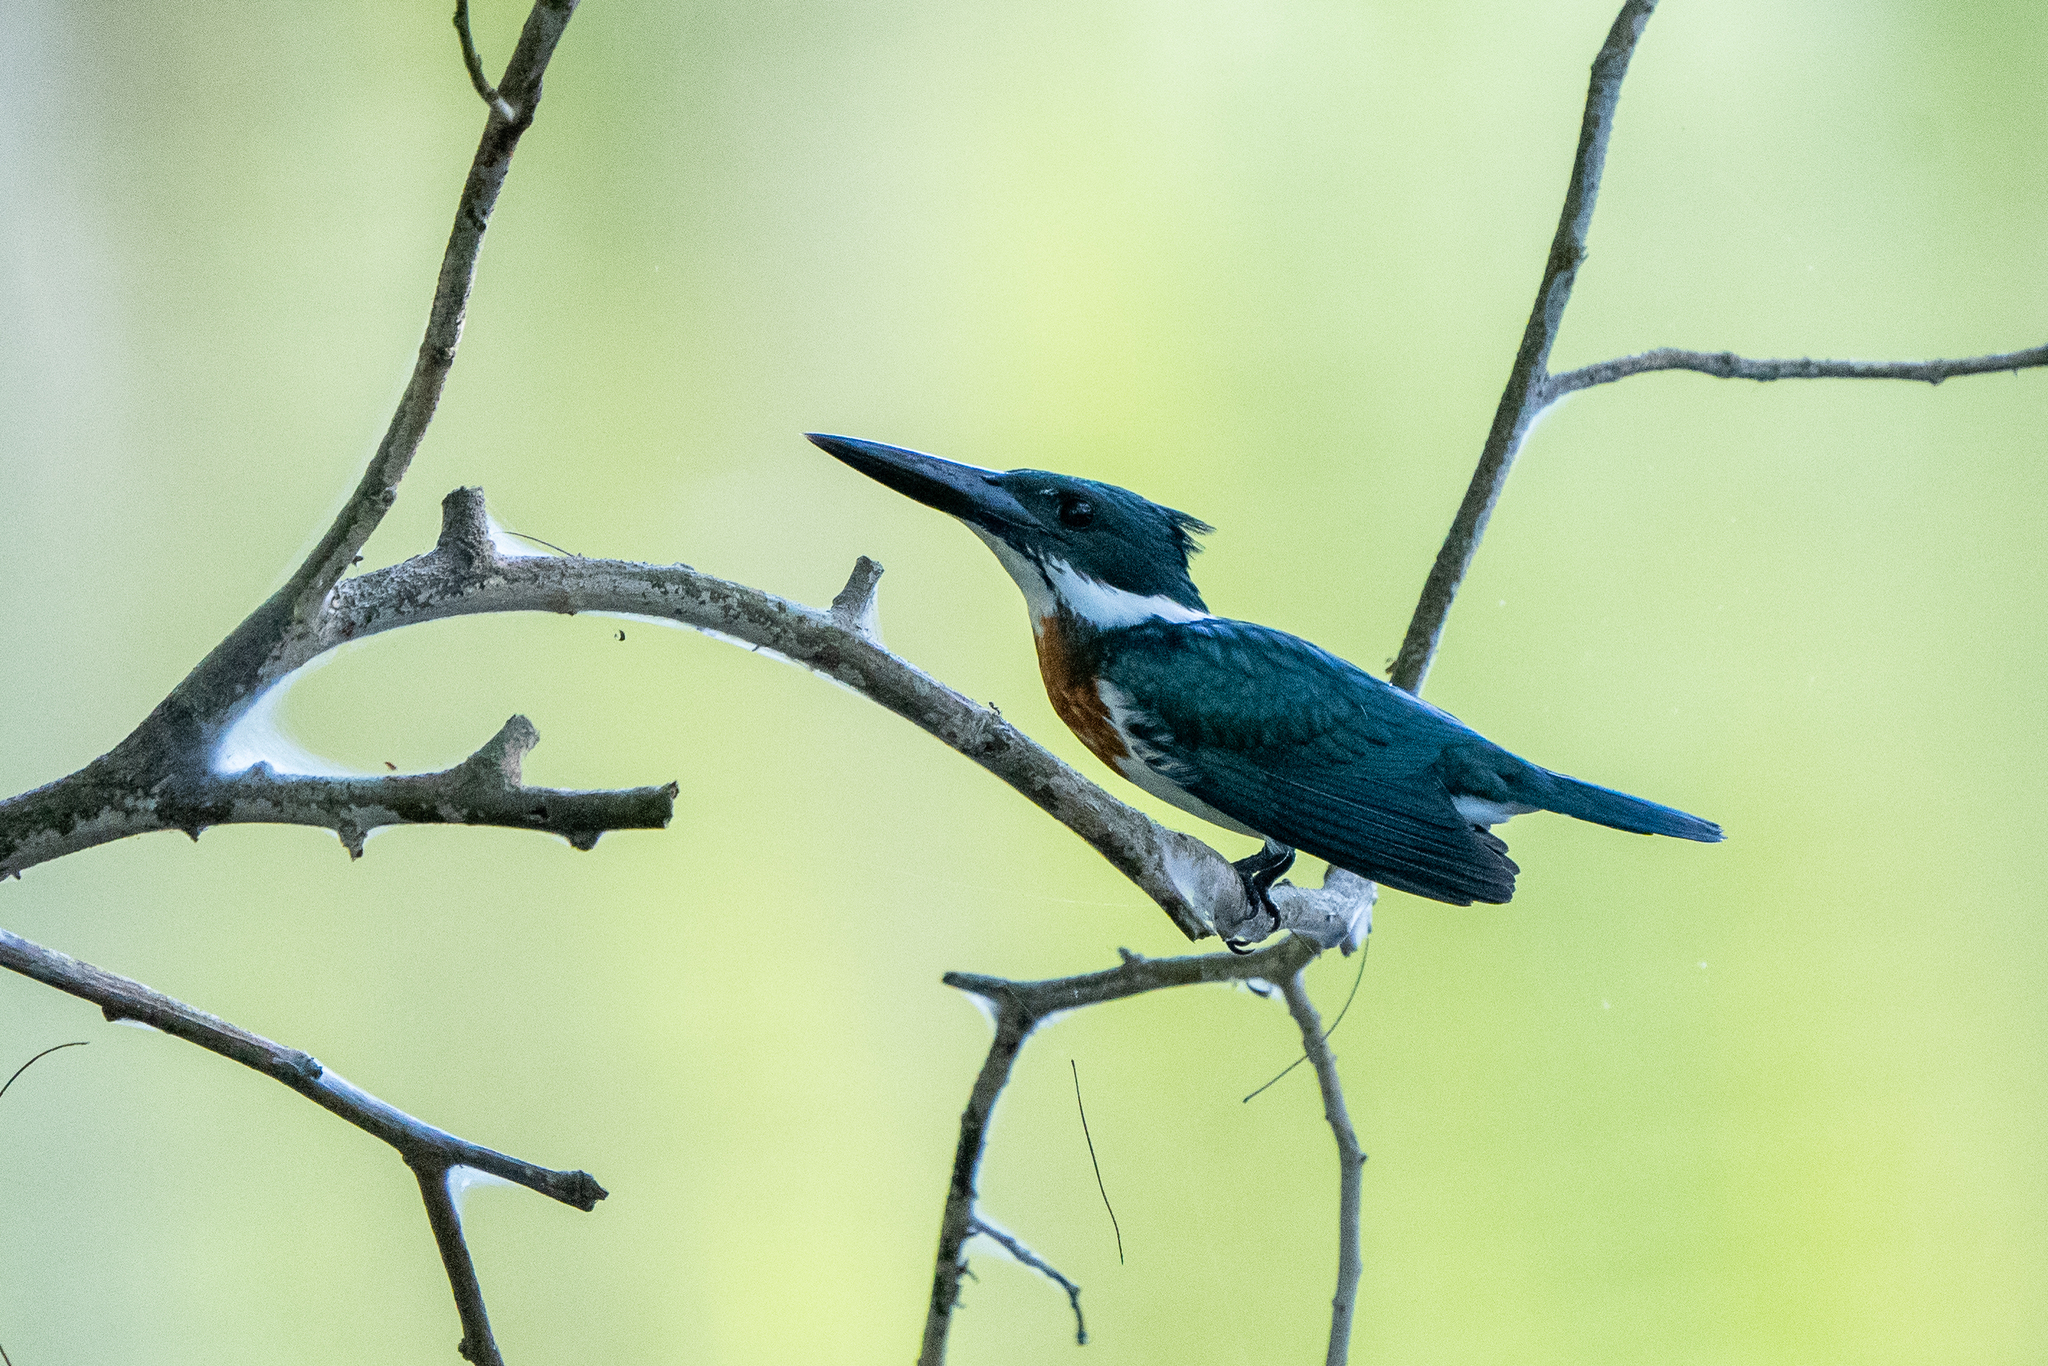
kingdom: Animalia
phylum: Chordata
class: Aves
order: Coraciiformes
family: Alcedinidae
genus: Chloroceryle
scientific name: Chloroceryle amazona
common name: Amazon kingfisher
